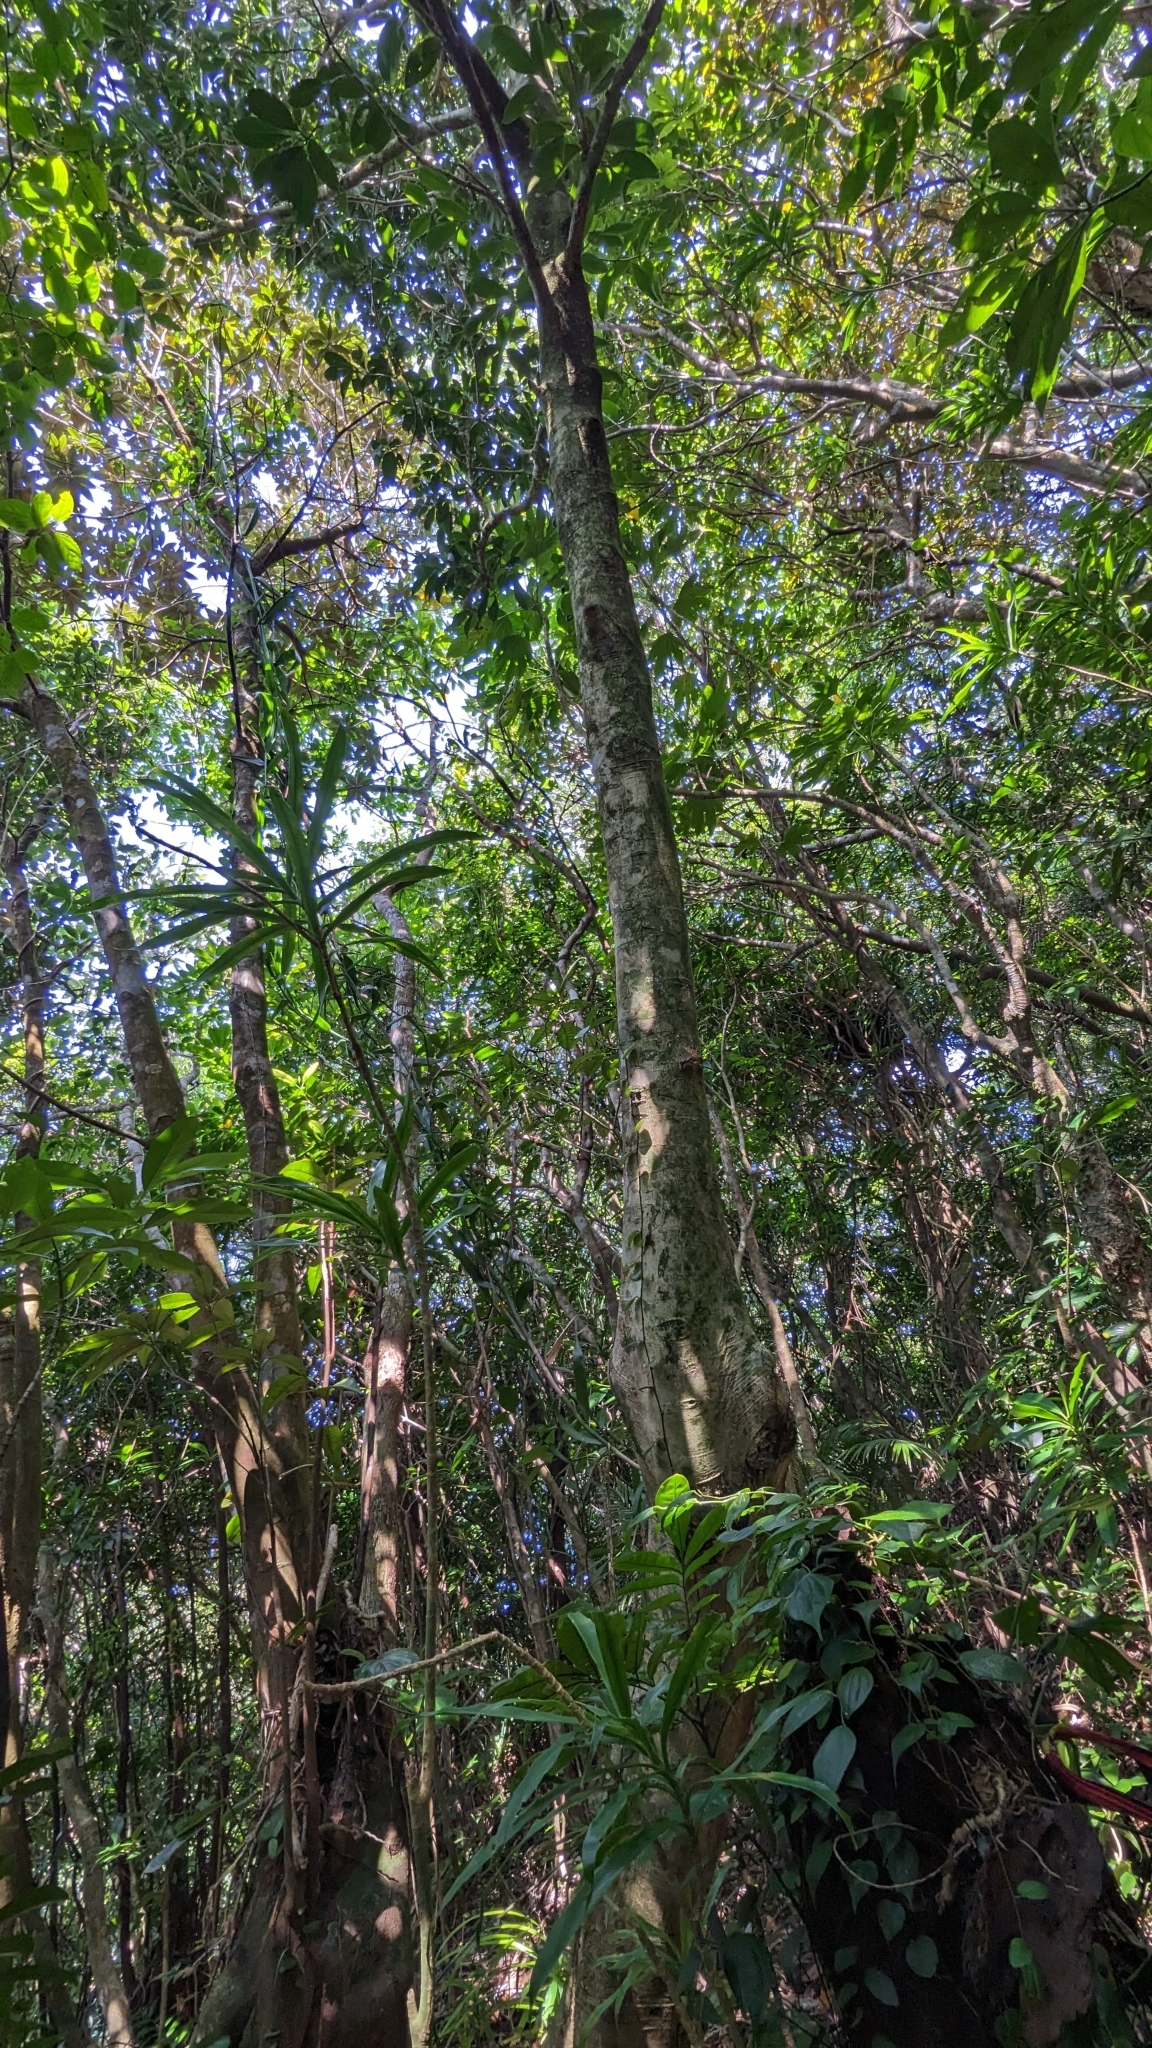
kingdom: Plantae
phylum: Tracheophyta
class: Magnoliopsida
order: Laurales
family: Lauraceae
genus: Endiandra
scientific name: Endiandra coriacea
